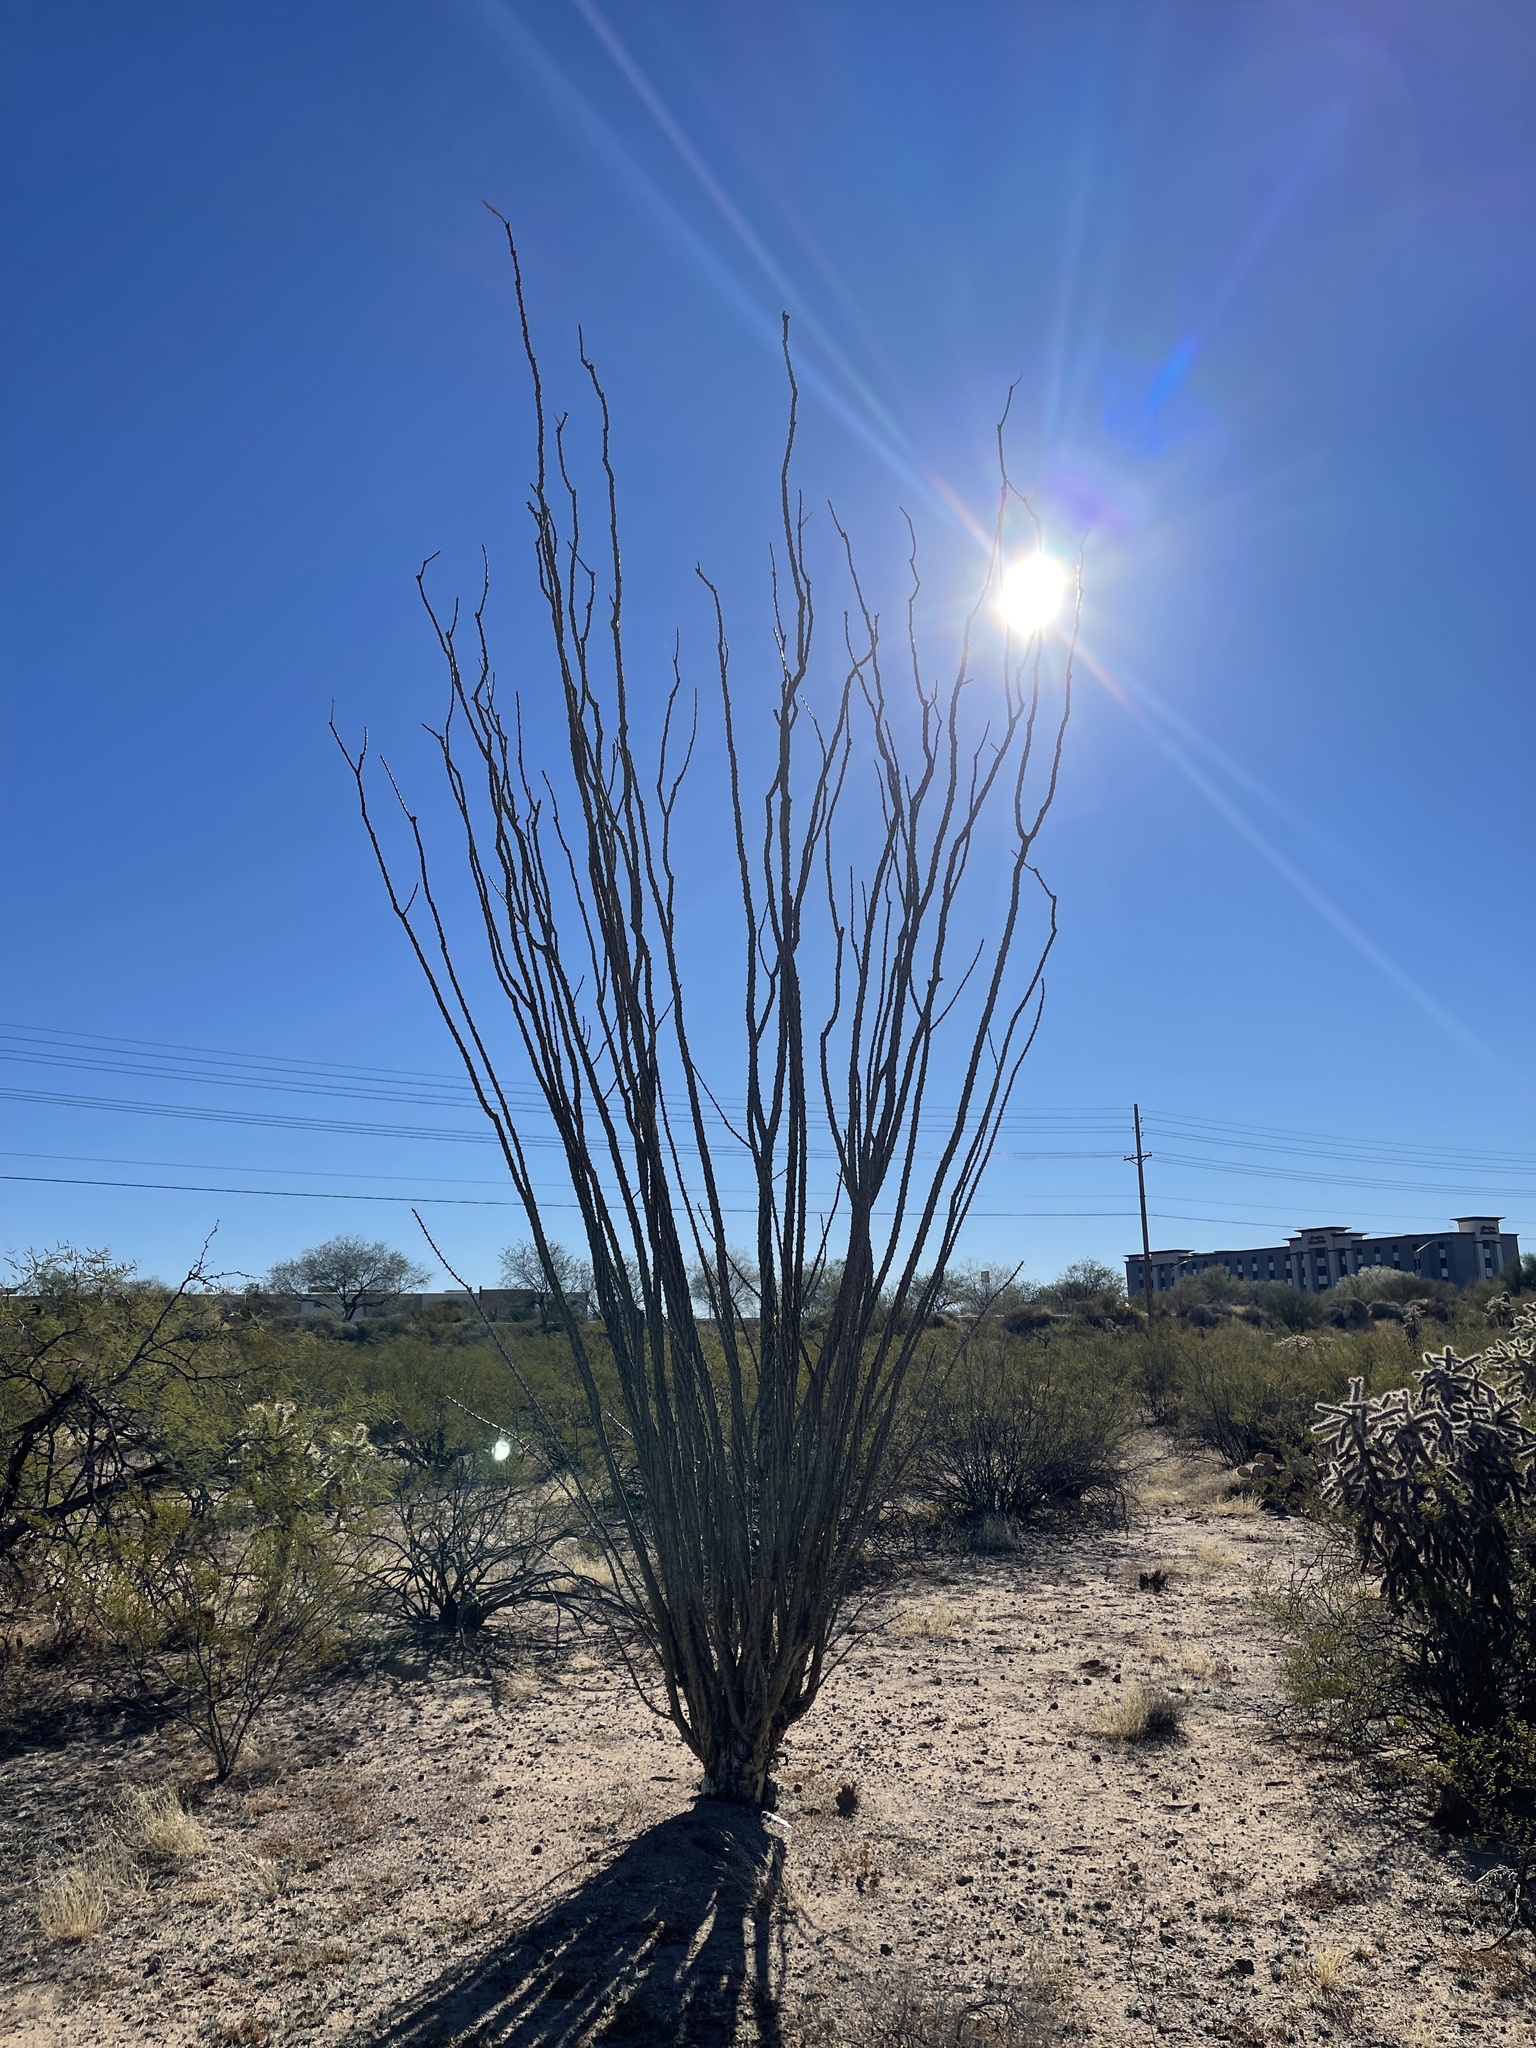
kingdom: Plantae
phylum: Tracheophyta
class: Magnoliopsida
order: Ericales
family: Fouquieriaceae
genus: Fouquieria
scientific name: Fouquieria splendens
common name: Vine-cactus
